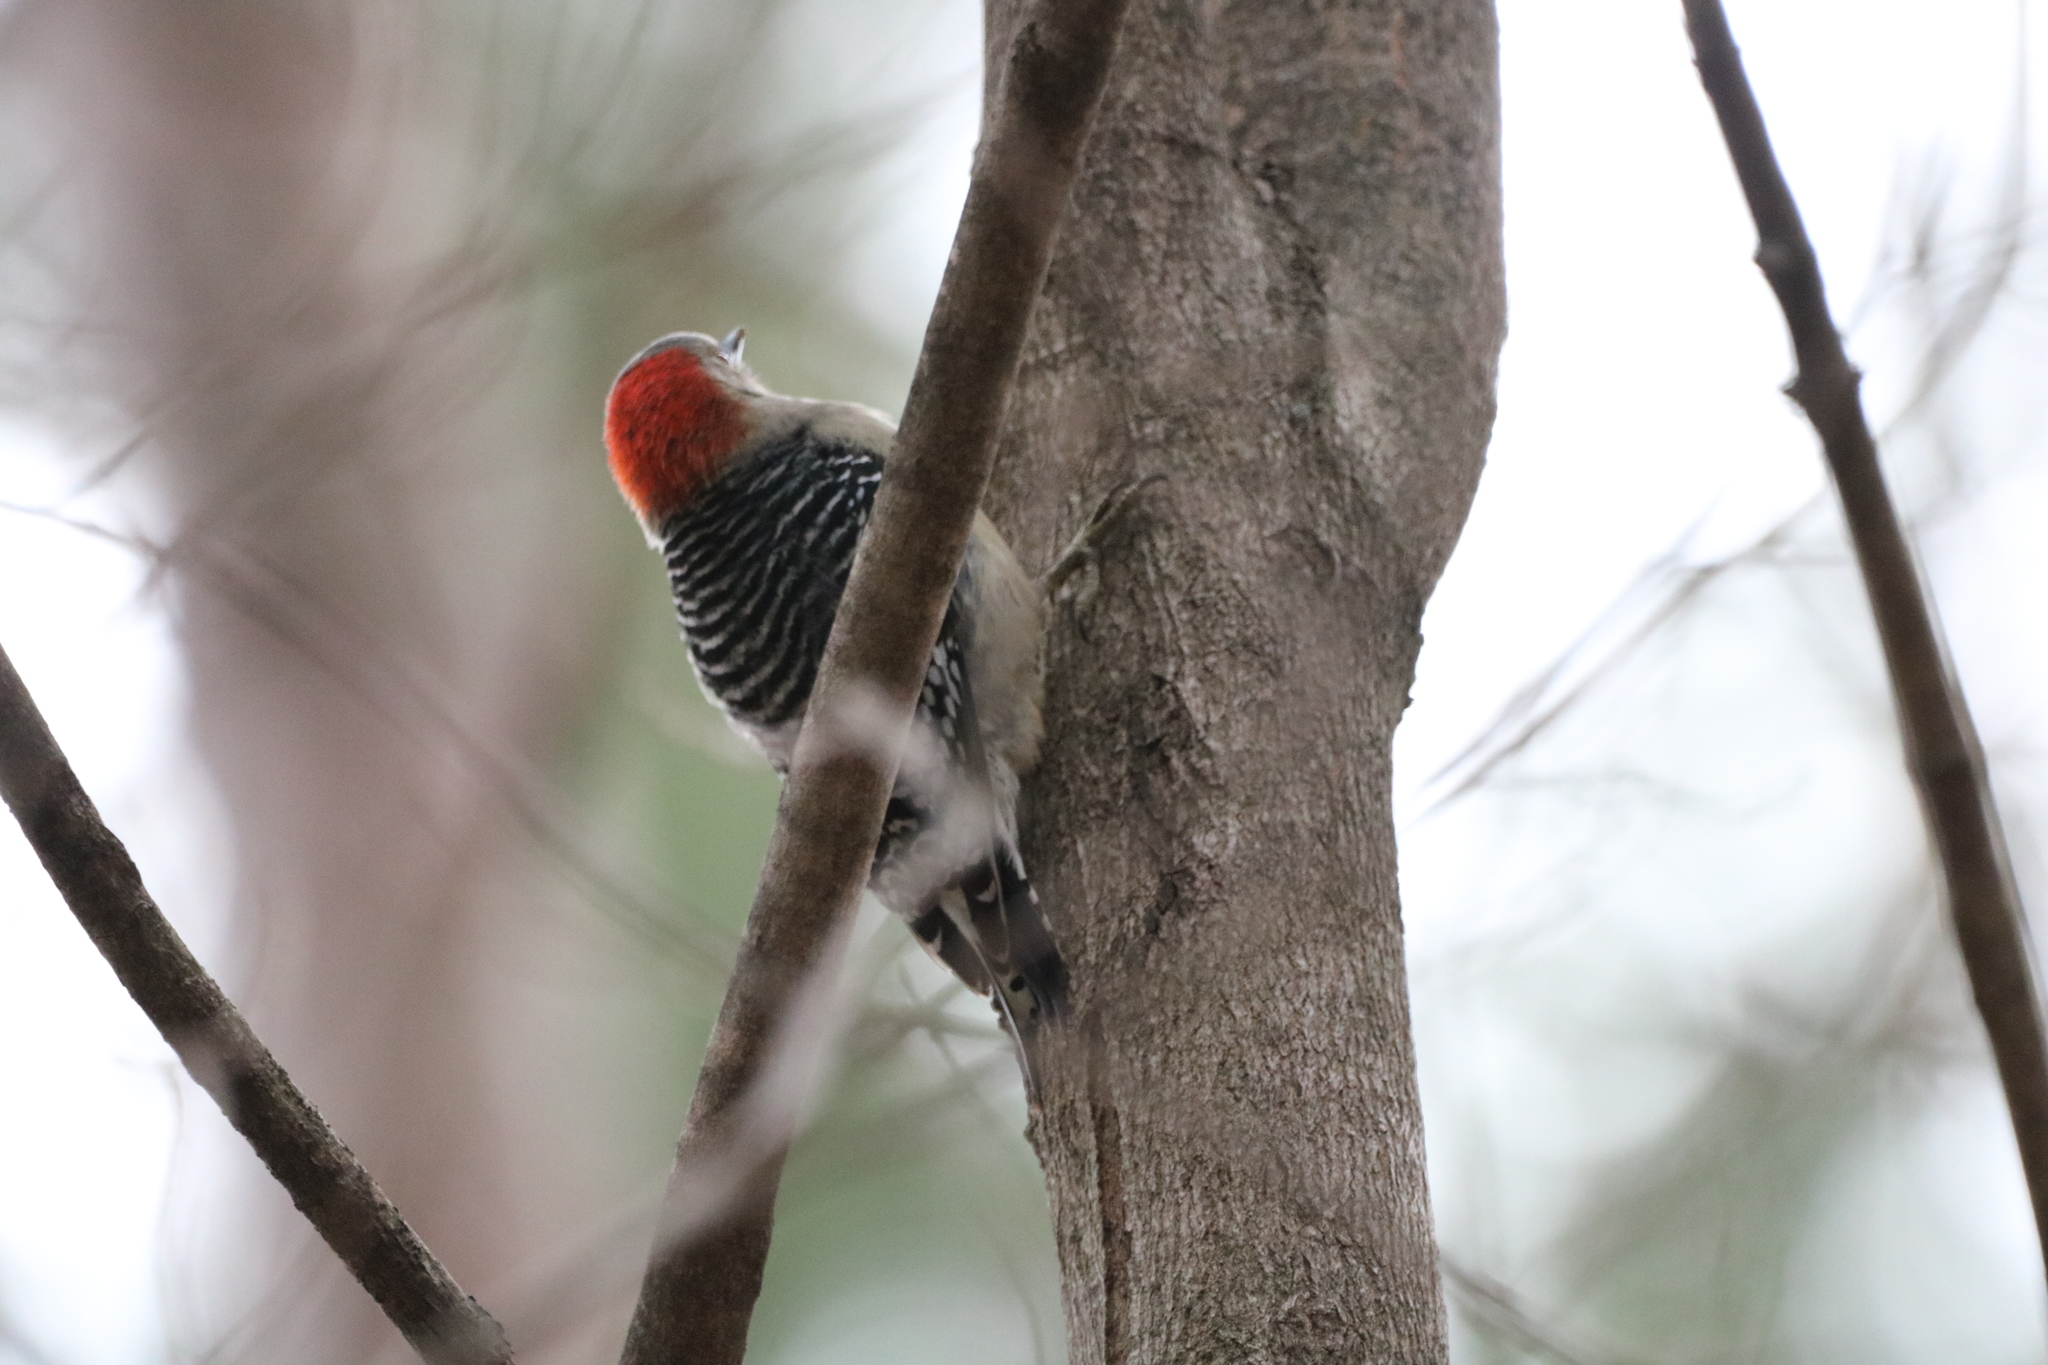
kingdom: Animalia
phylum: Chordata
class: Aves
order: Piciformes
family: Picidae
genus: Melanerpes
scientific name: Melanerpes carolinus
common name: Red-bellied woodpecker
